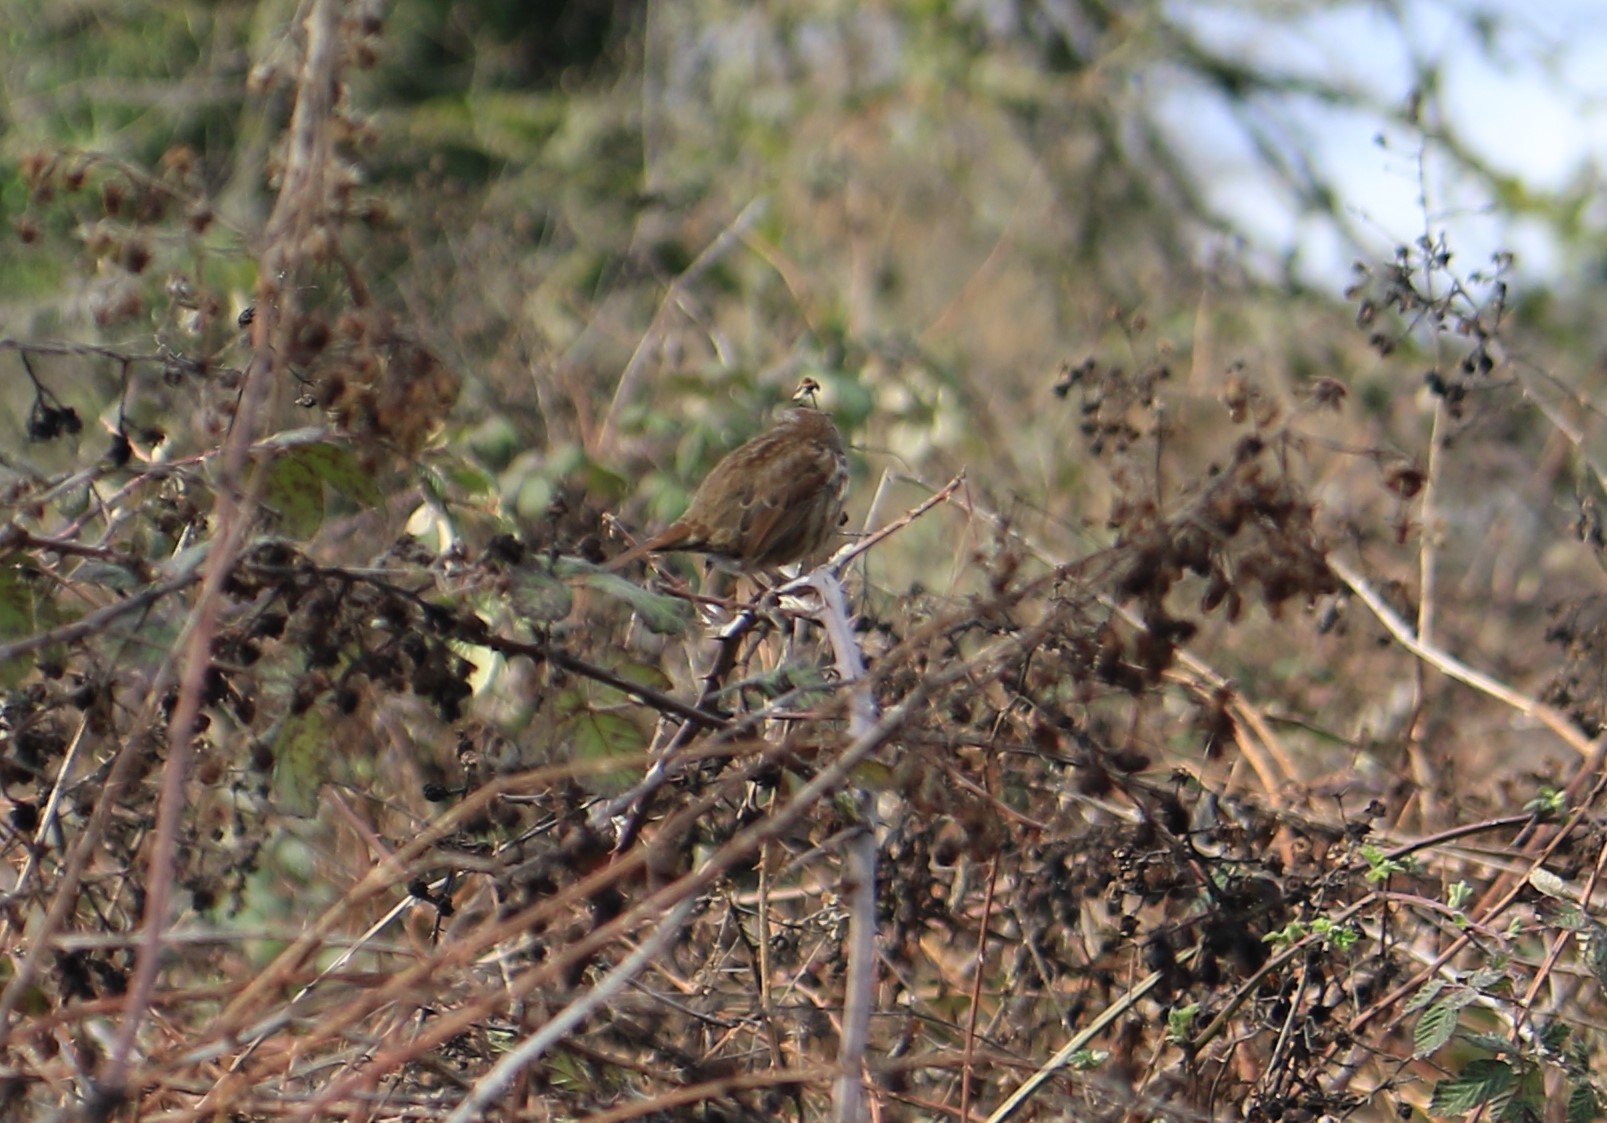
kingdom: Animalia
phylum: Chordata
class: Aves
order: Passeriformes
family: Passerellidae
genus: Melospiza
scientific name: Melospiza melodia
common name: Song sparrow
